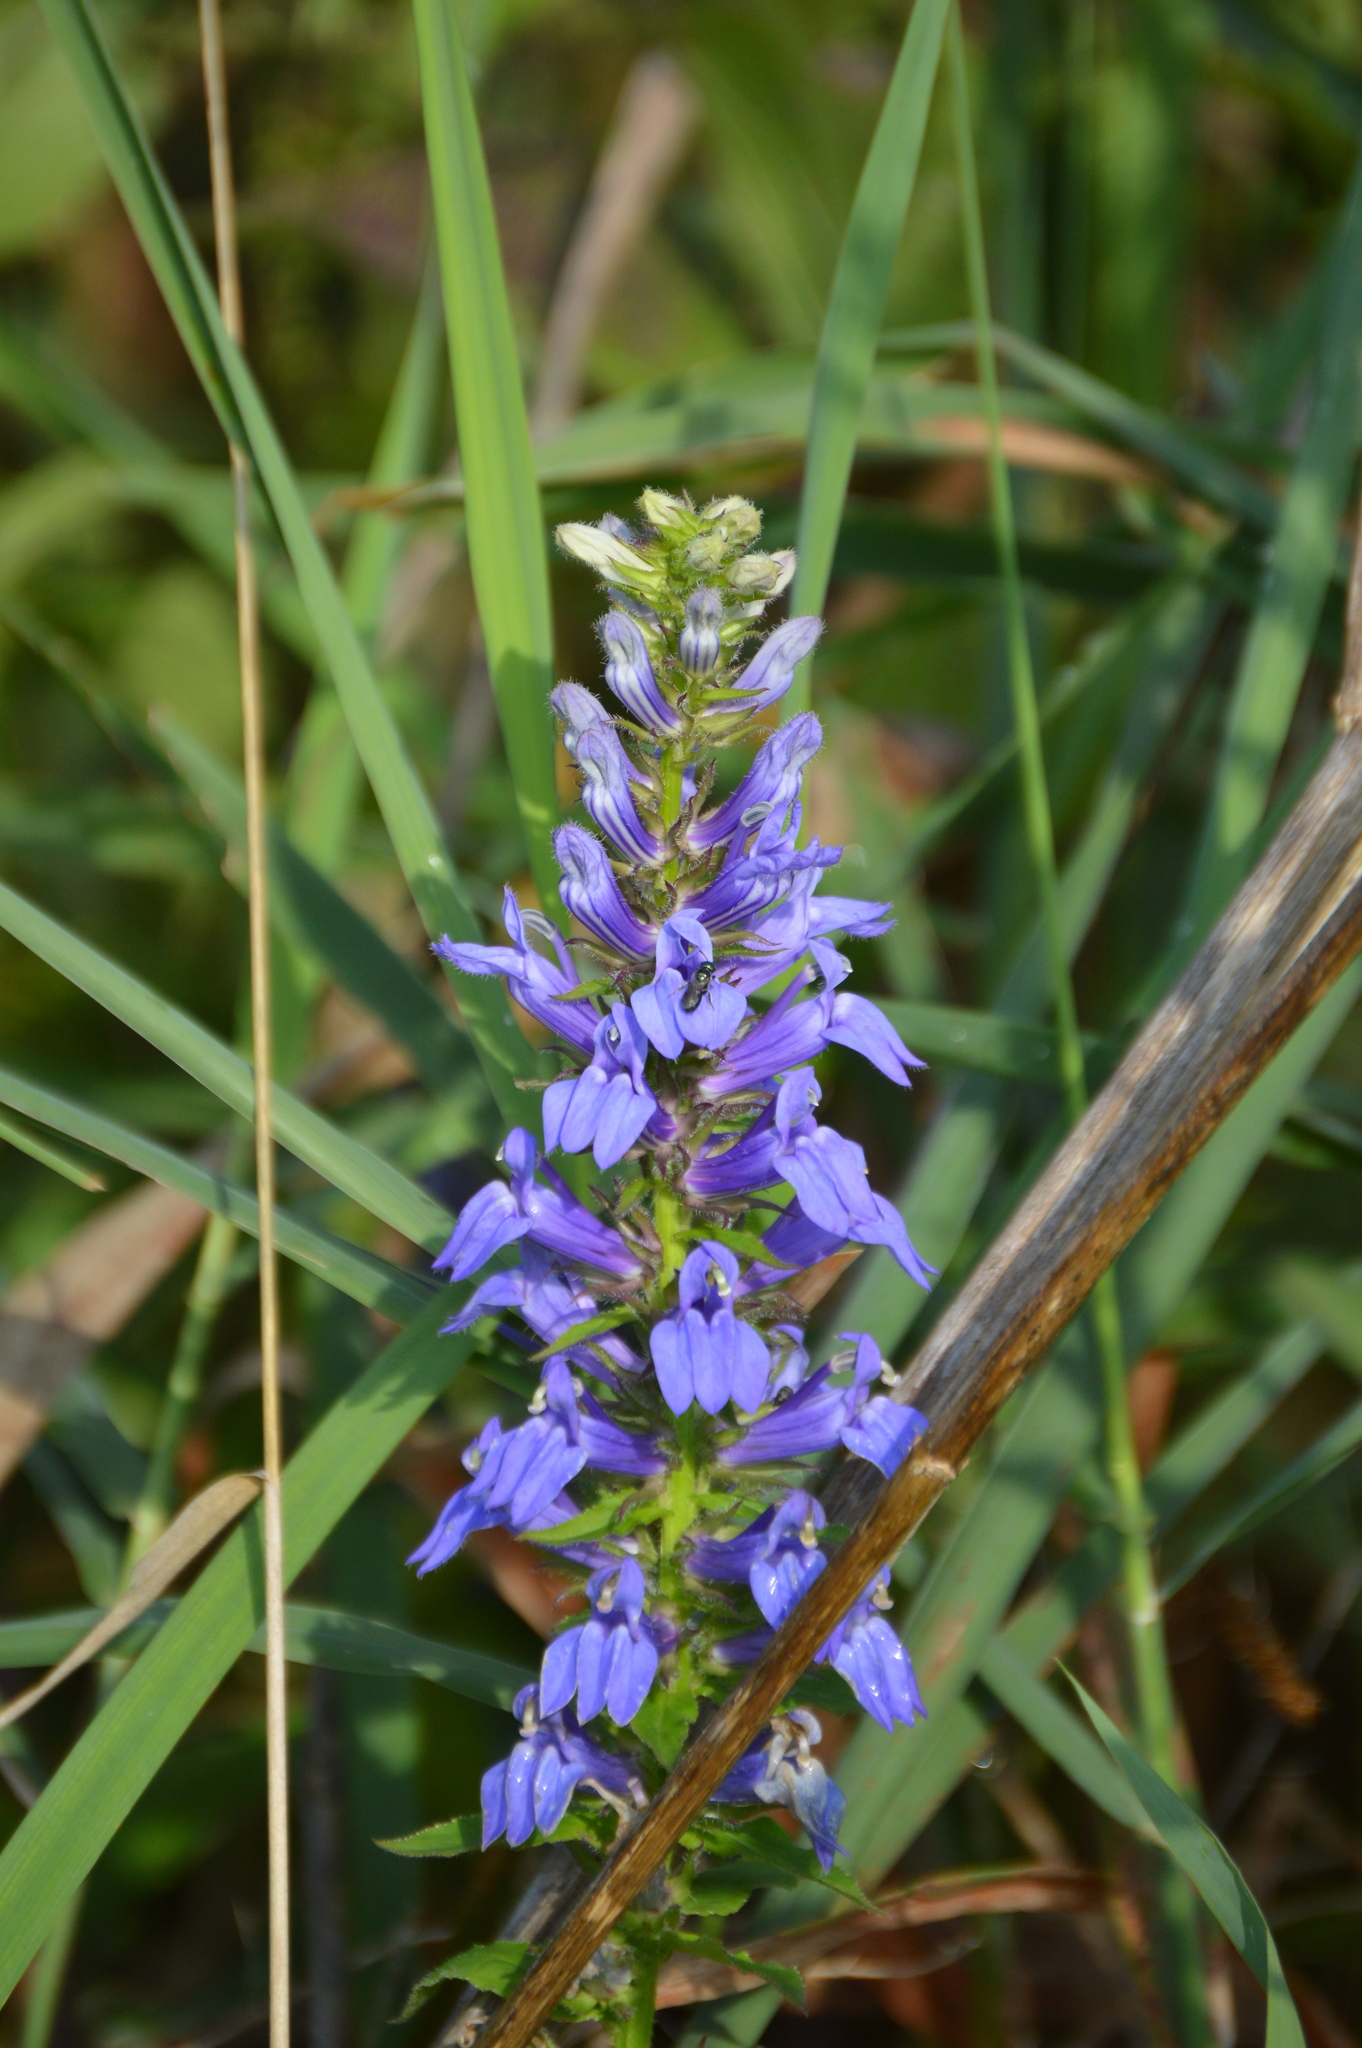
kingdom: Plantae
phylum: Tracheophyta
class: Magnoliopsida
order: Asterales
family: Campanulaceae
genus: Lobelia
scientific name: Lobelia siphilitica
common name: Great lobelia
